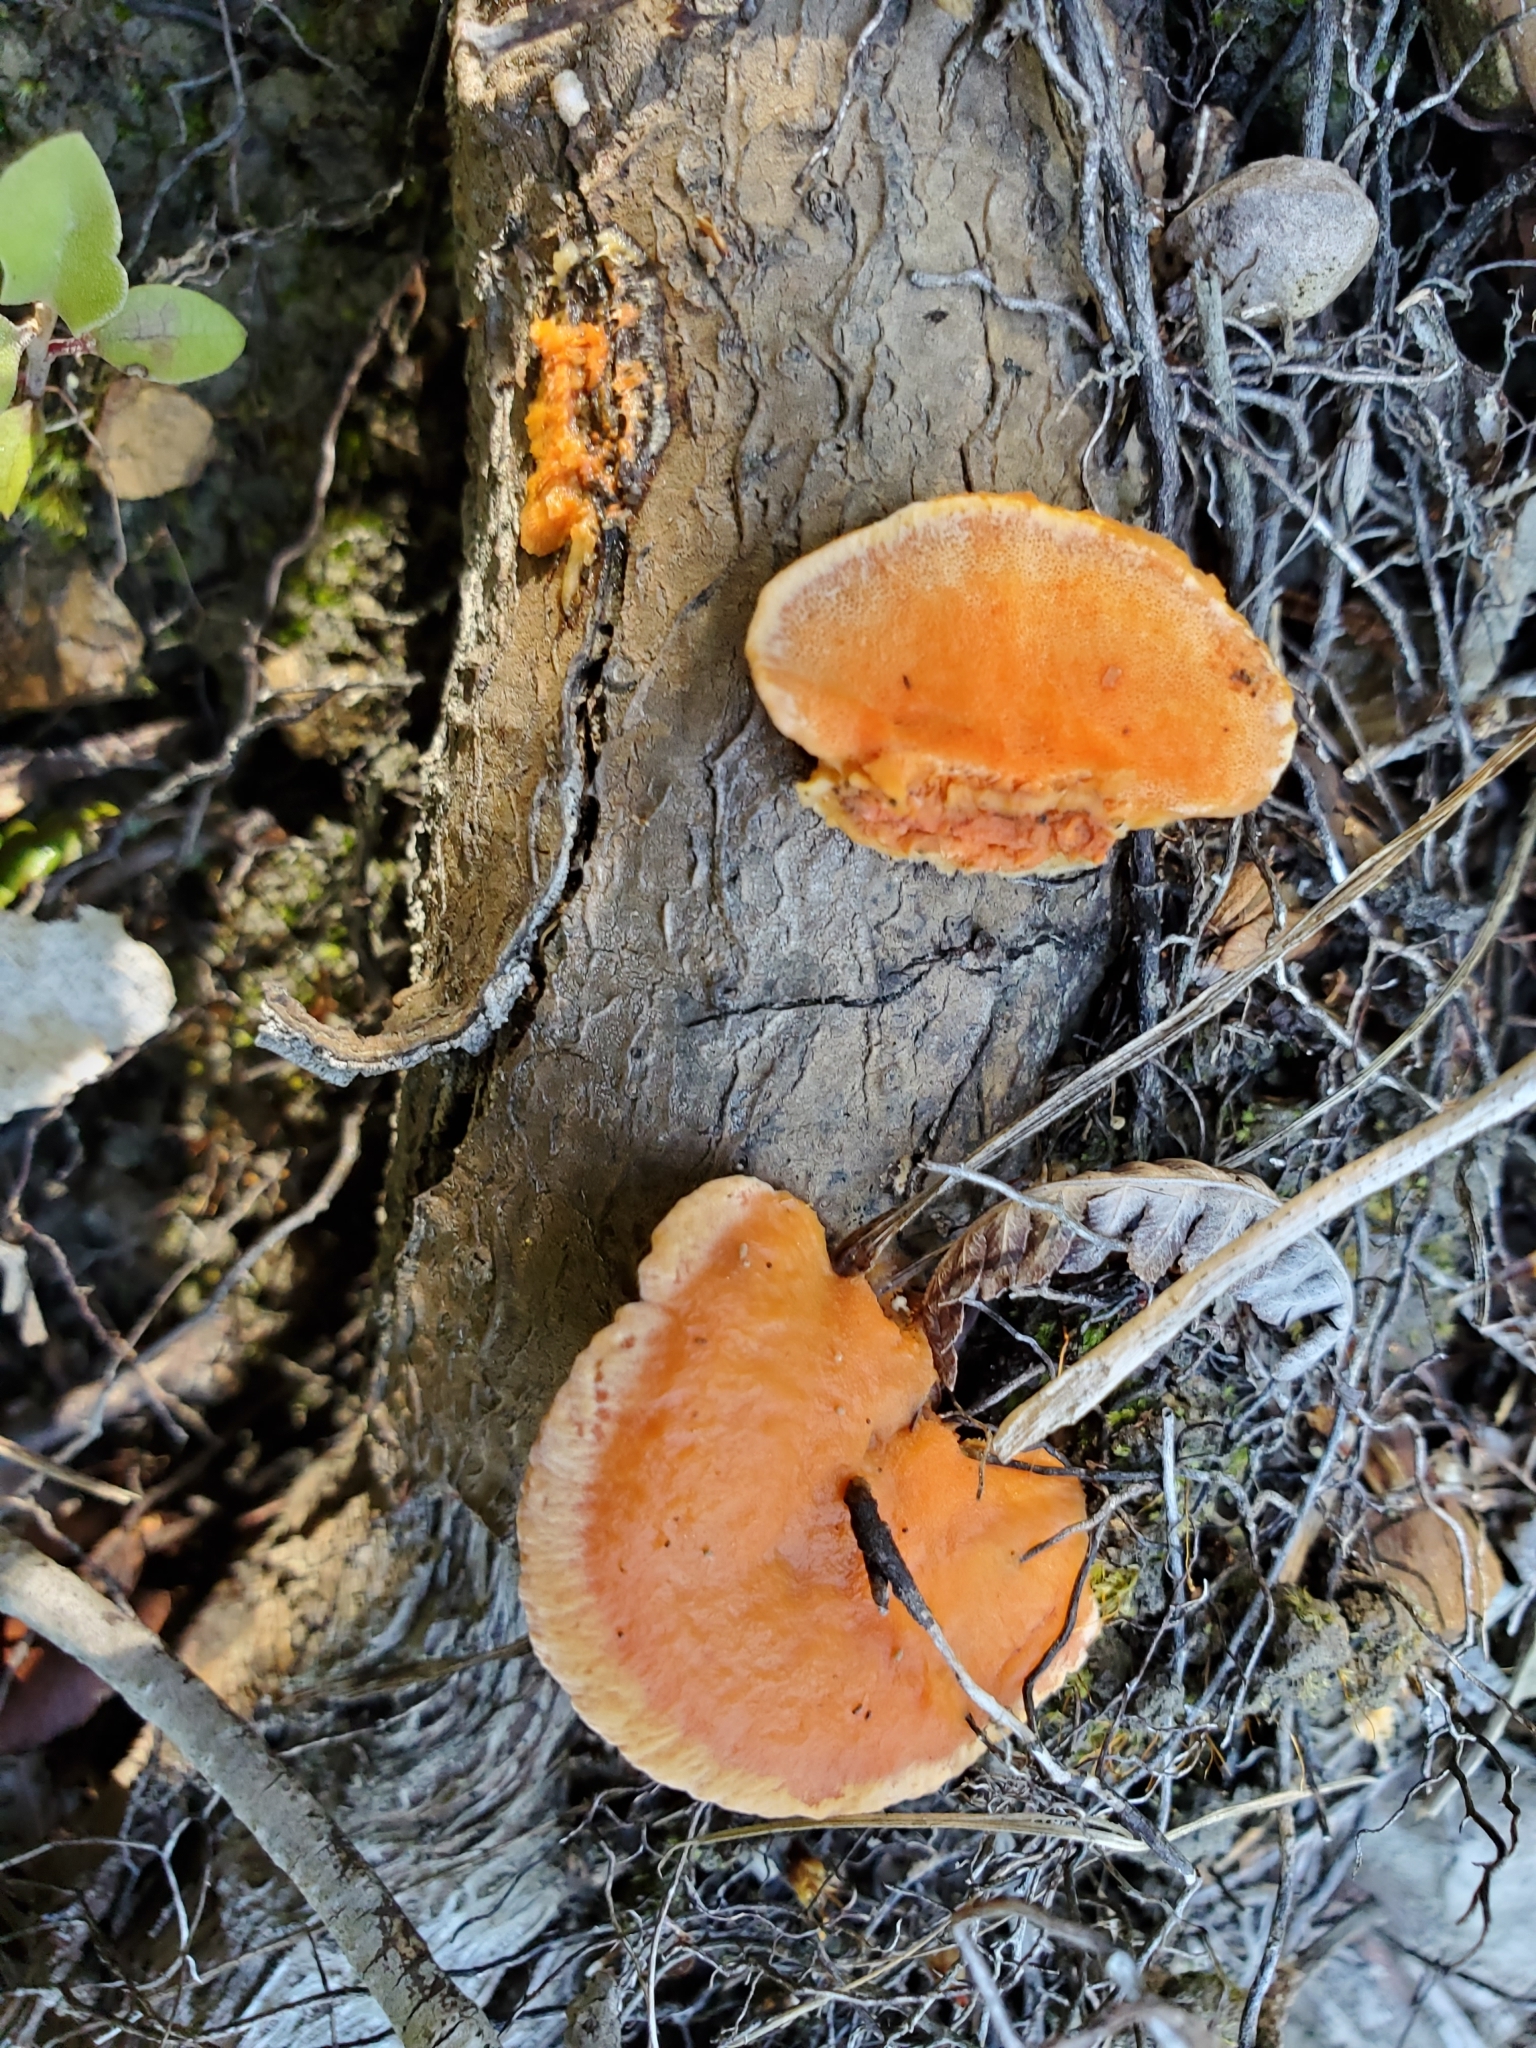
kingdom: Fungi
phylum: Basidiomycota
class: Agaricomycetes
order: Polyporales
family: Polyporaceae
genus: Trametes
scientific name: Trametes coccinea
